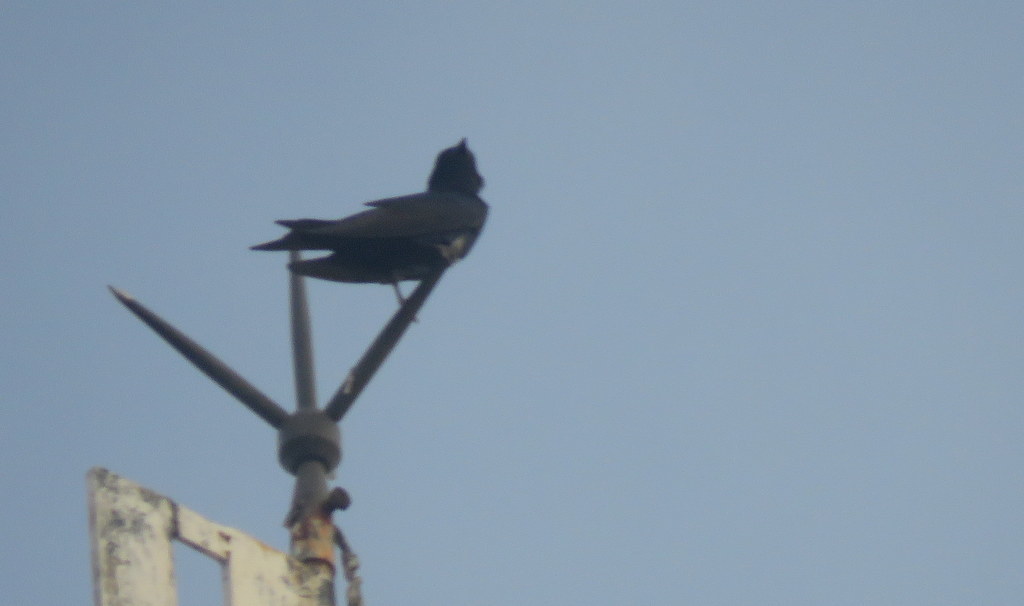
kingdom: Animalia
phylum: Chordata
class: Aves
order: Passeriformes
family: Hirundinidae
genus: Progne
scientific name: Progne elegans
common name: Southern martin
